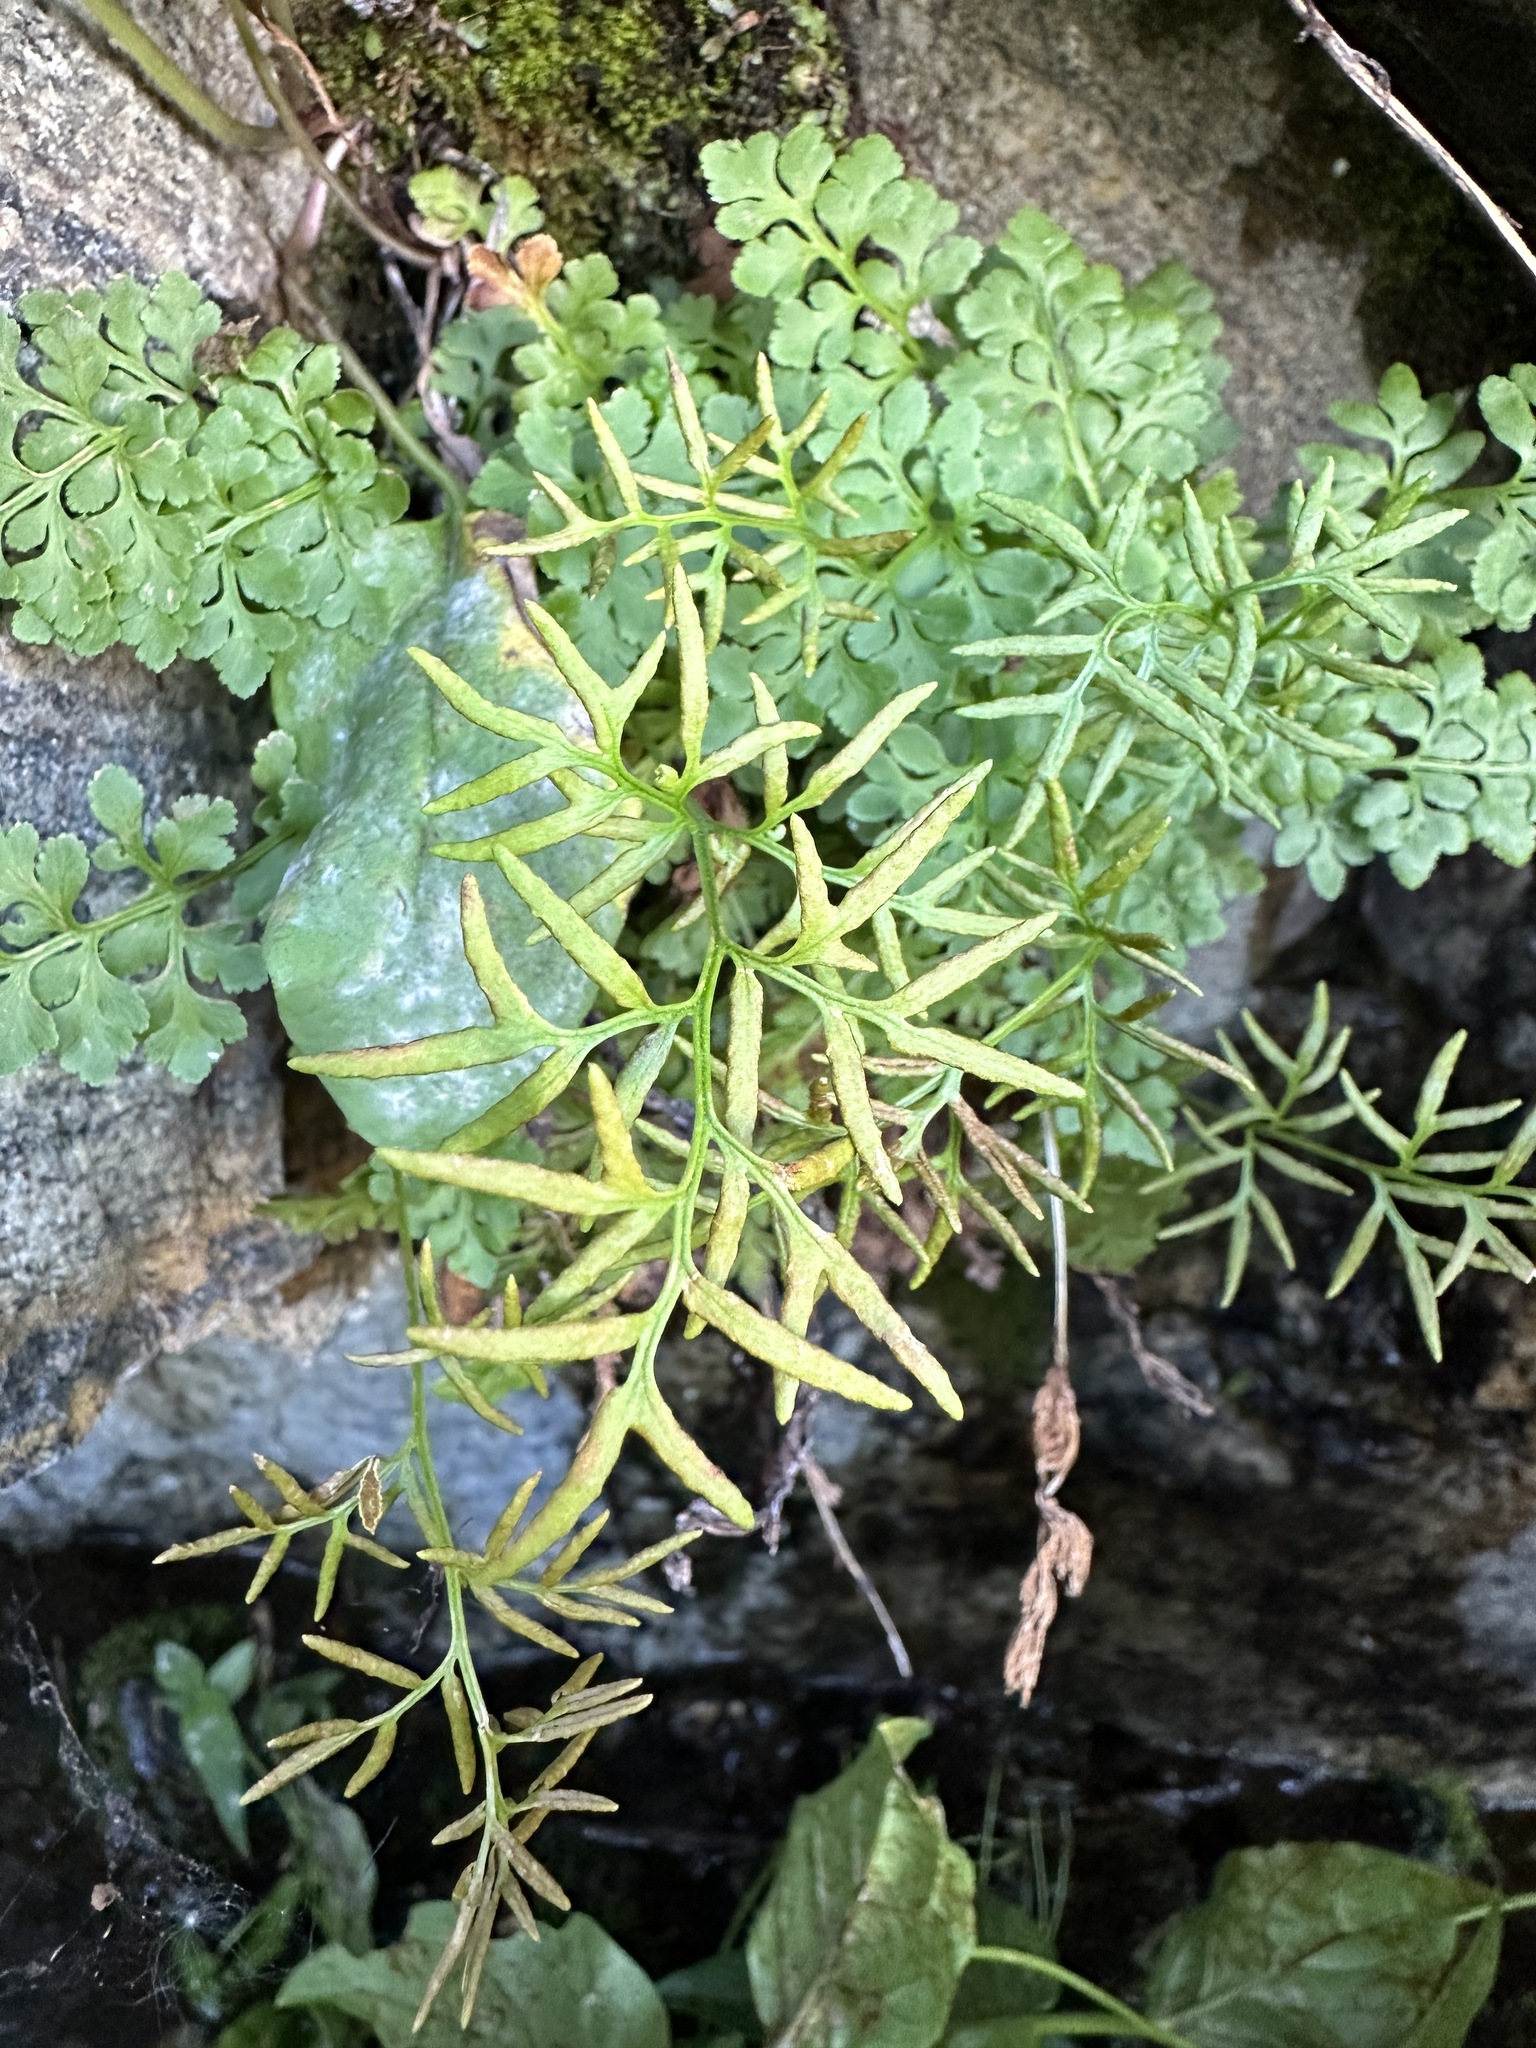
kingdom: Plantae
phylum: Tracheophyta
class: Polypodiopsida
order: Polypodiales
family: Pteridaceae
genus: Cryptogramma
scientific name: Cryptogramma acrostichoides
